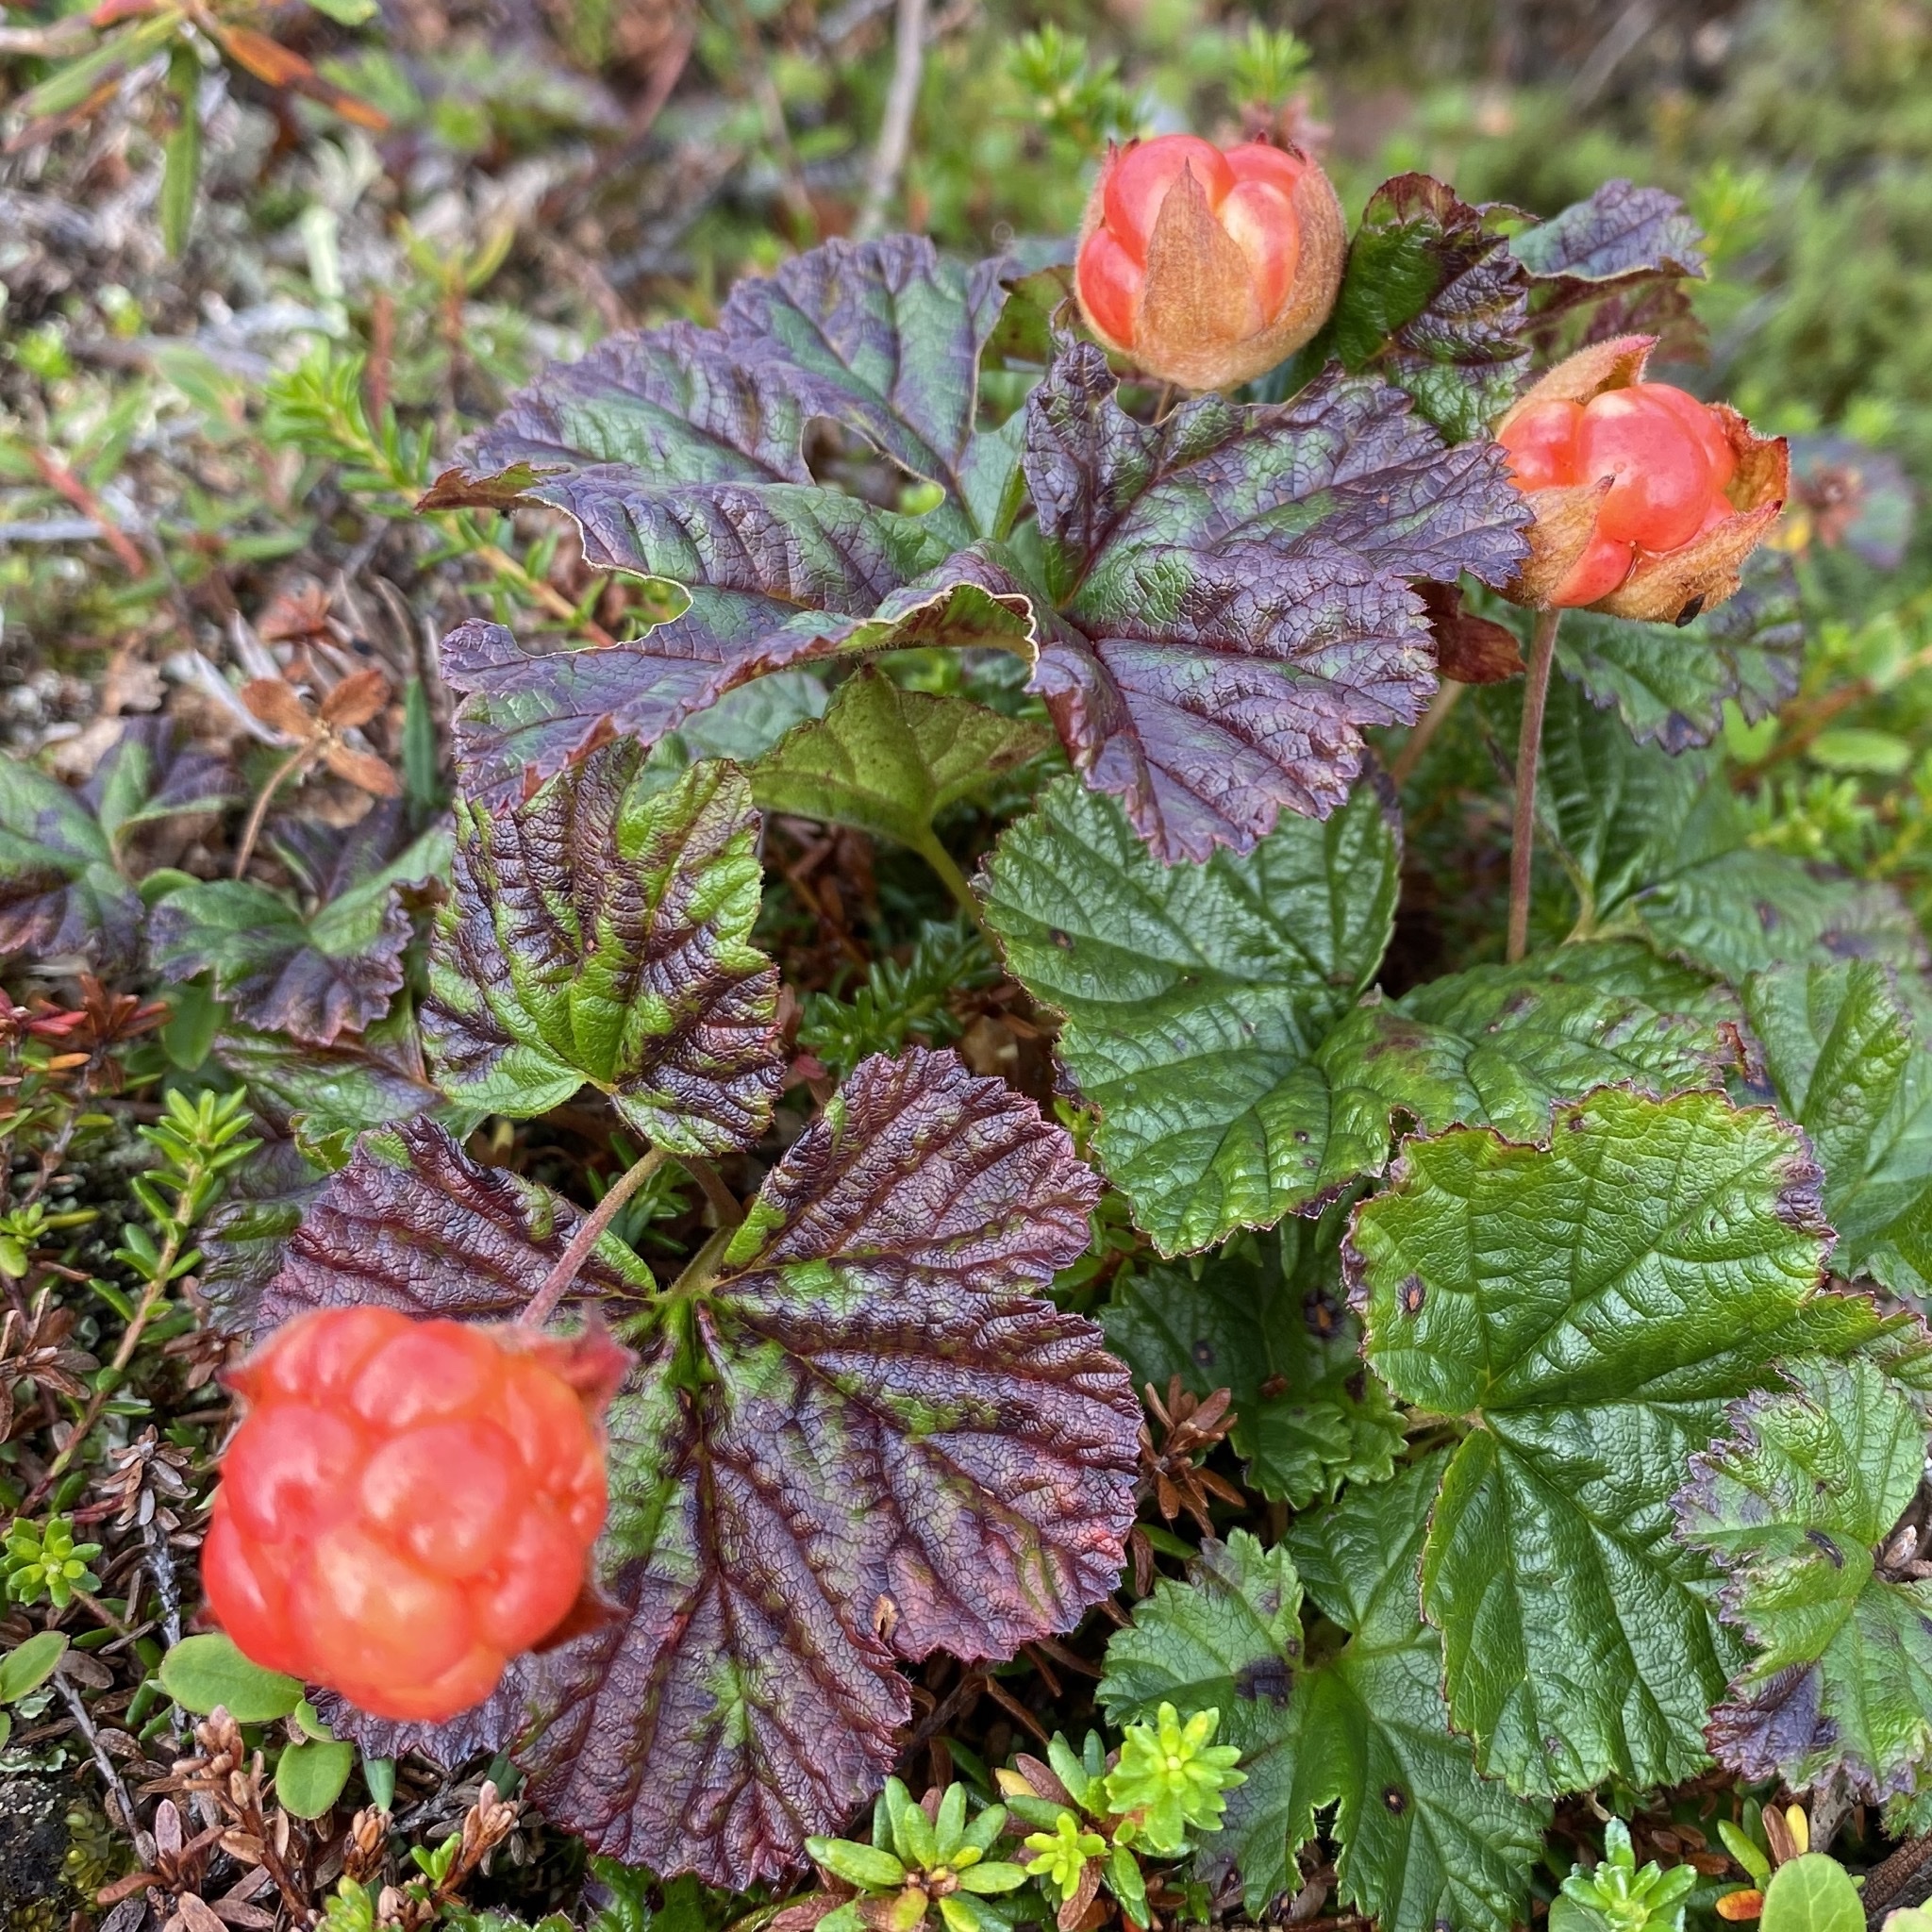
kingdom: Plantae
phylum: Tracheophyta
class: Magnoliopsida
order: Rosales
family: Rosaceae
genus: Rubus
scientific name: Rubus chamaemorus
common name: Cloudberry
